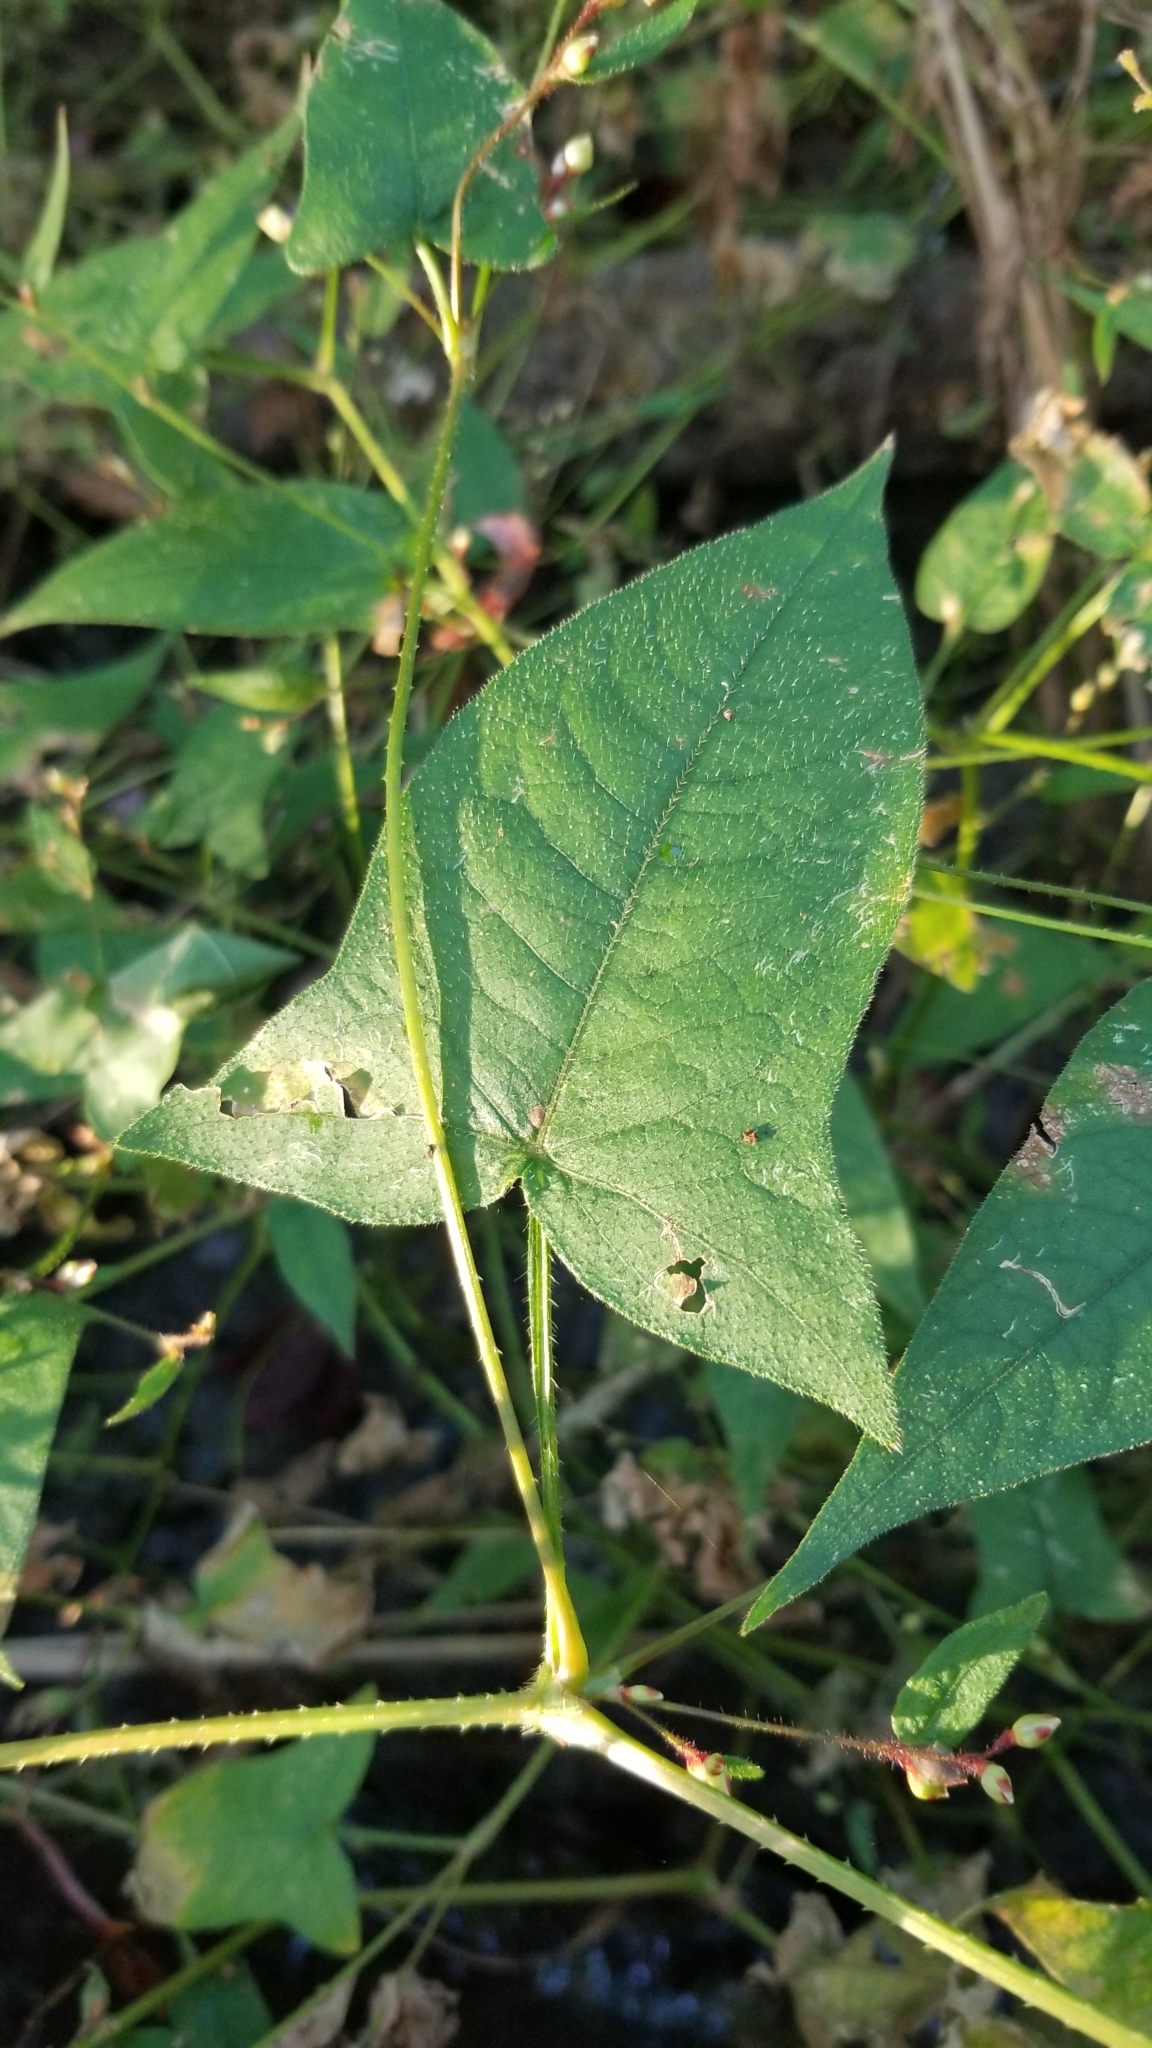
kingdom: Plantae
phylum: Tracheophyta
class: Magnoliopsida
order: Caryophyllales
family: Polygonaceae
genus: Persicaria
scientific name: Persicaria arifolia
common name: Halberd-leaved tear-thumb
